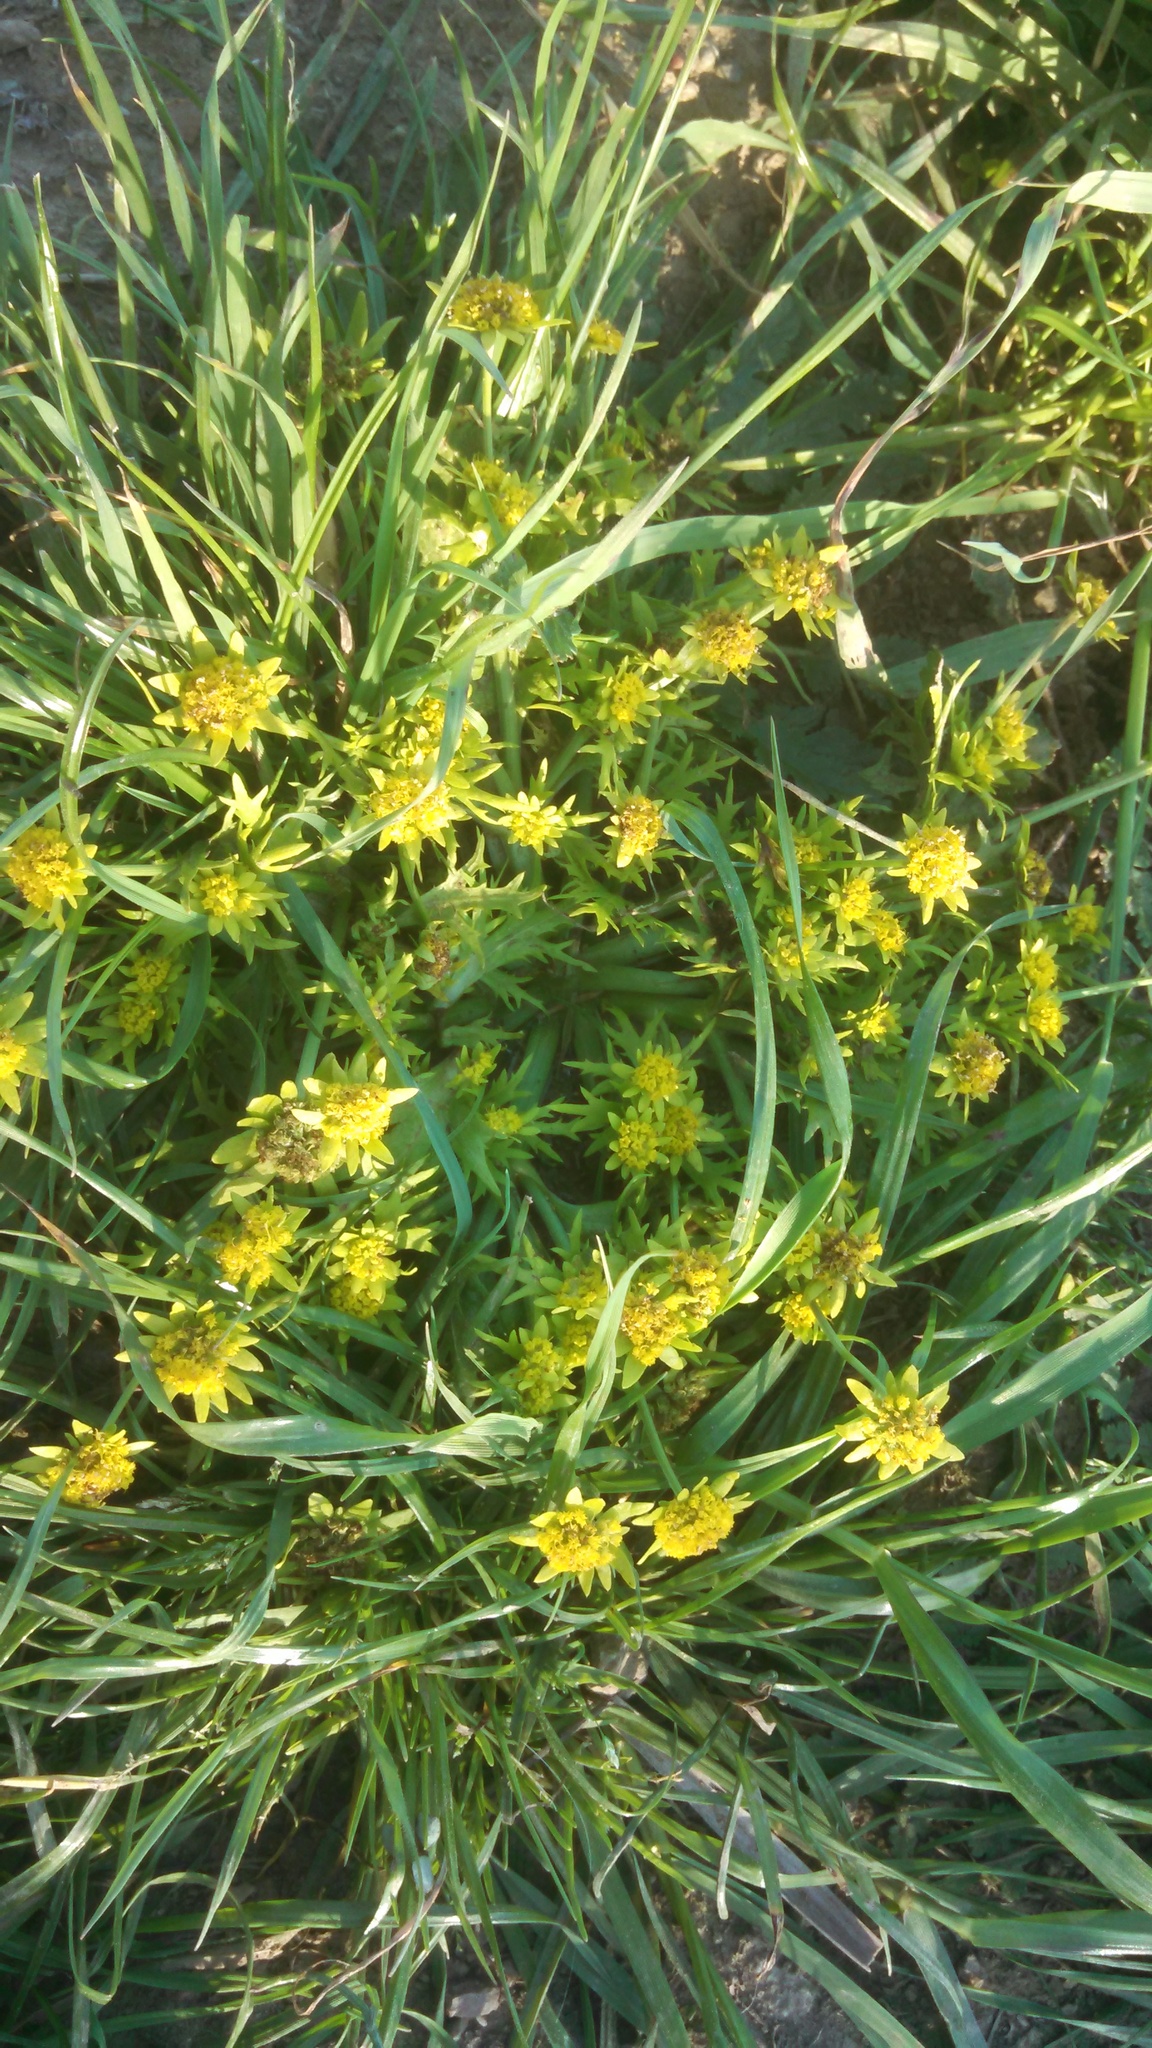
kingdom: Plantae
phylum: Tracheophyta
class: Magnoliopsida
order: Apiales
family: Apiaceae
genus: Sanicula
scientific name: Sanicula arctopoides
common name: Footsteps-of-spring
